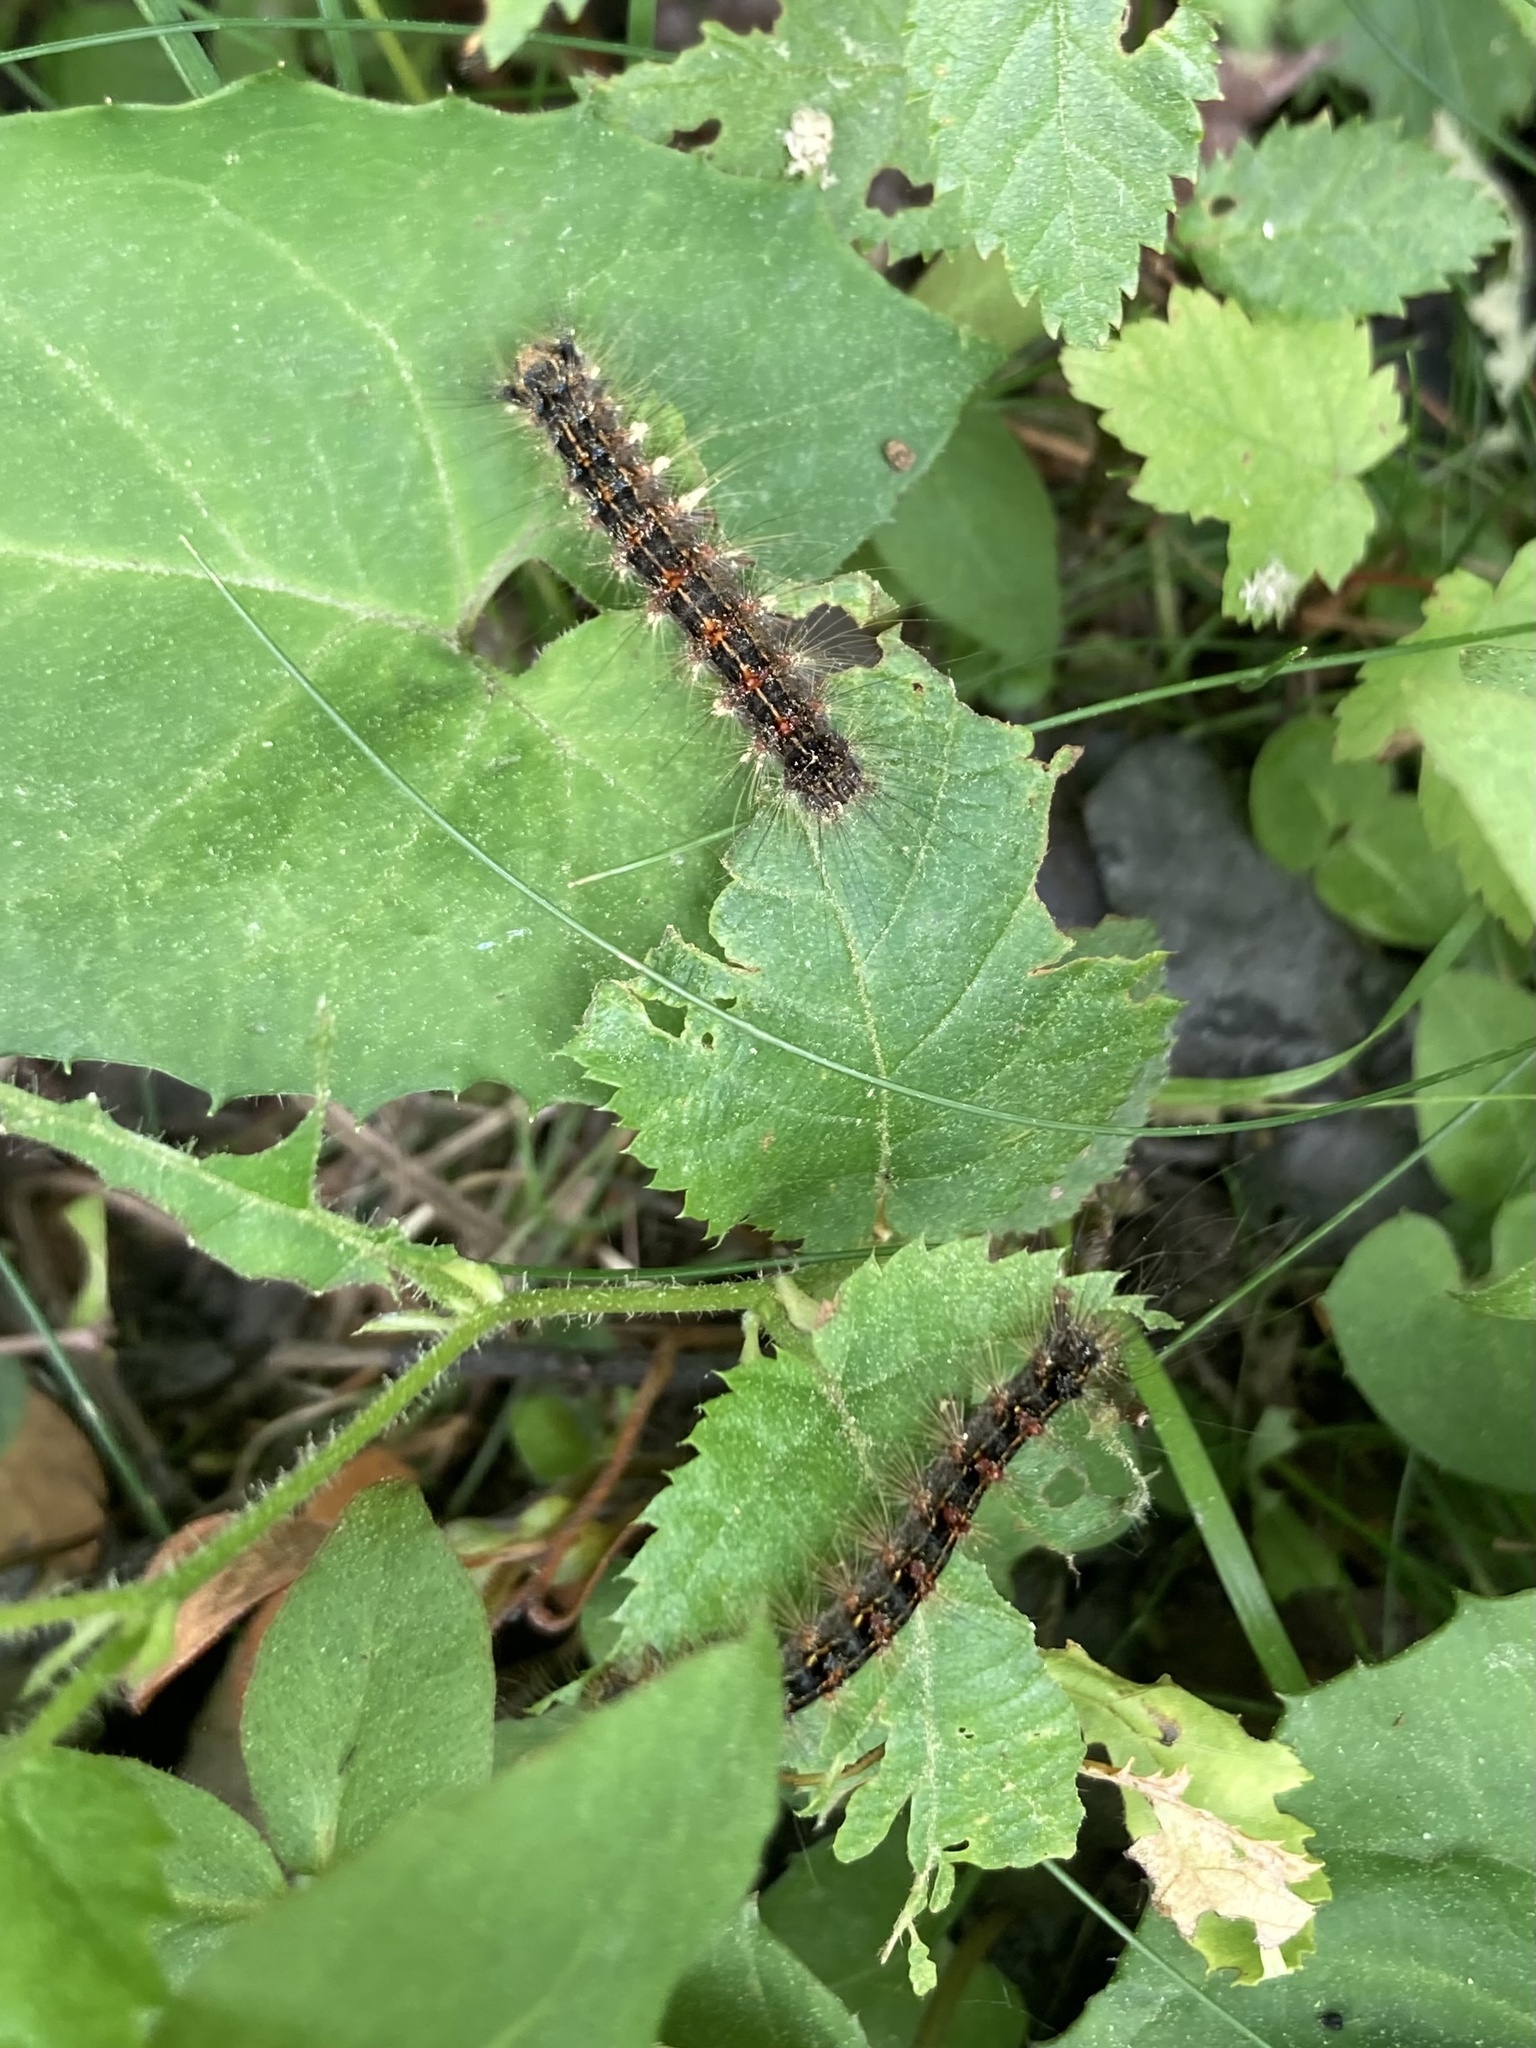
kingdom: Animalia
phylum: Arthropoda
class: Insecta
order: Lepidoptera
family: Erebidae
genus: Lymantria
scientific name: Lymantria dispar
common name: Gypsy moth
